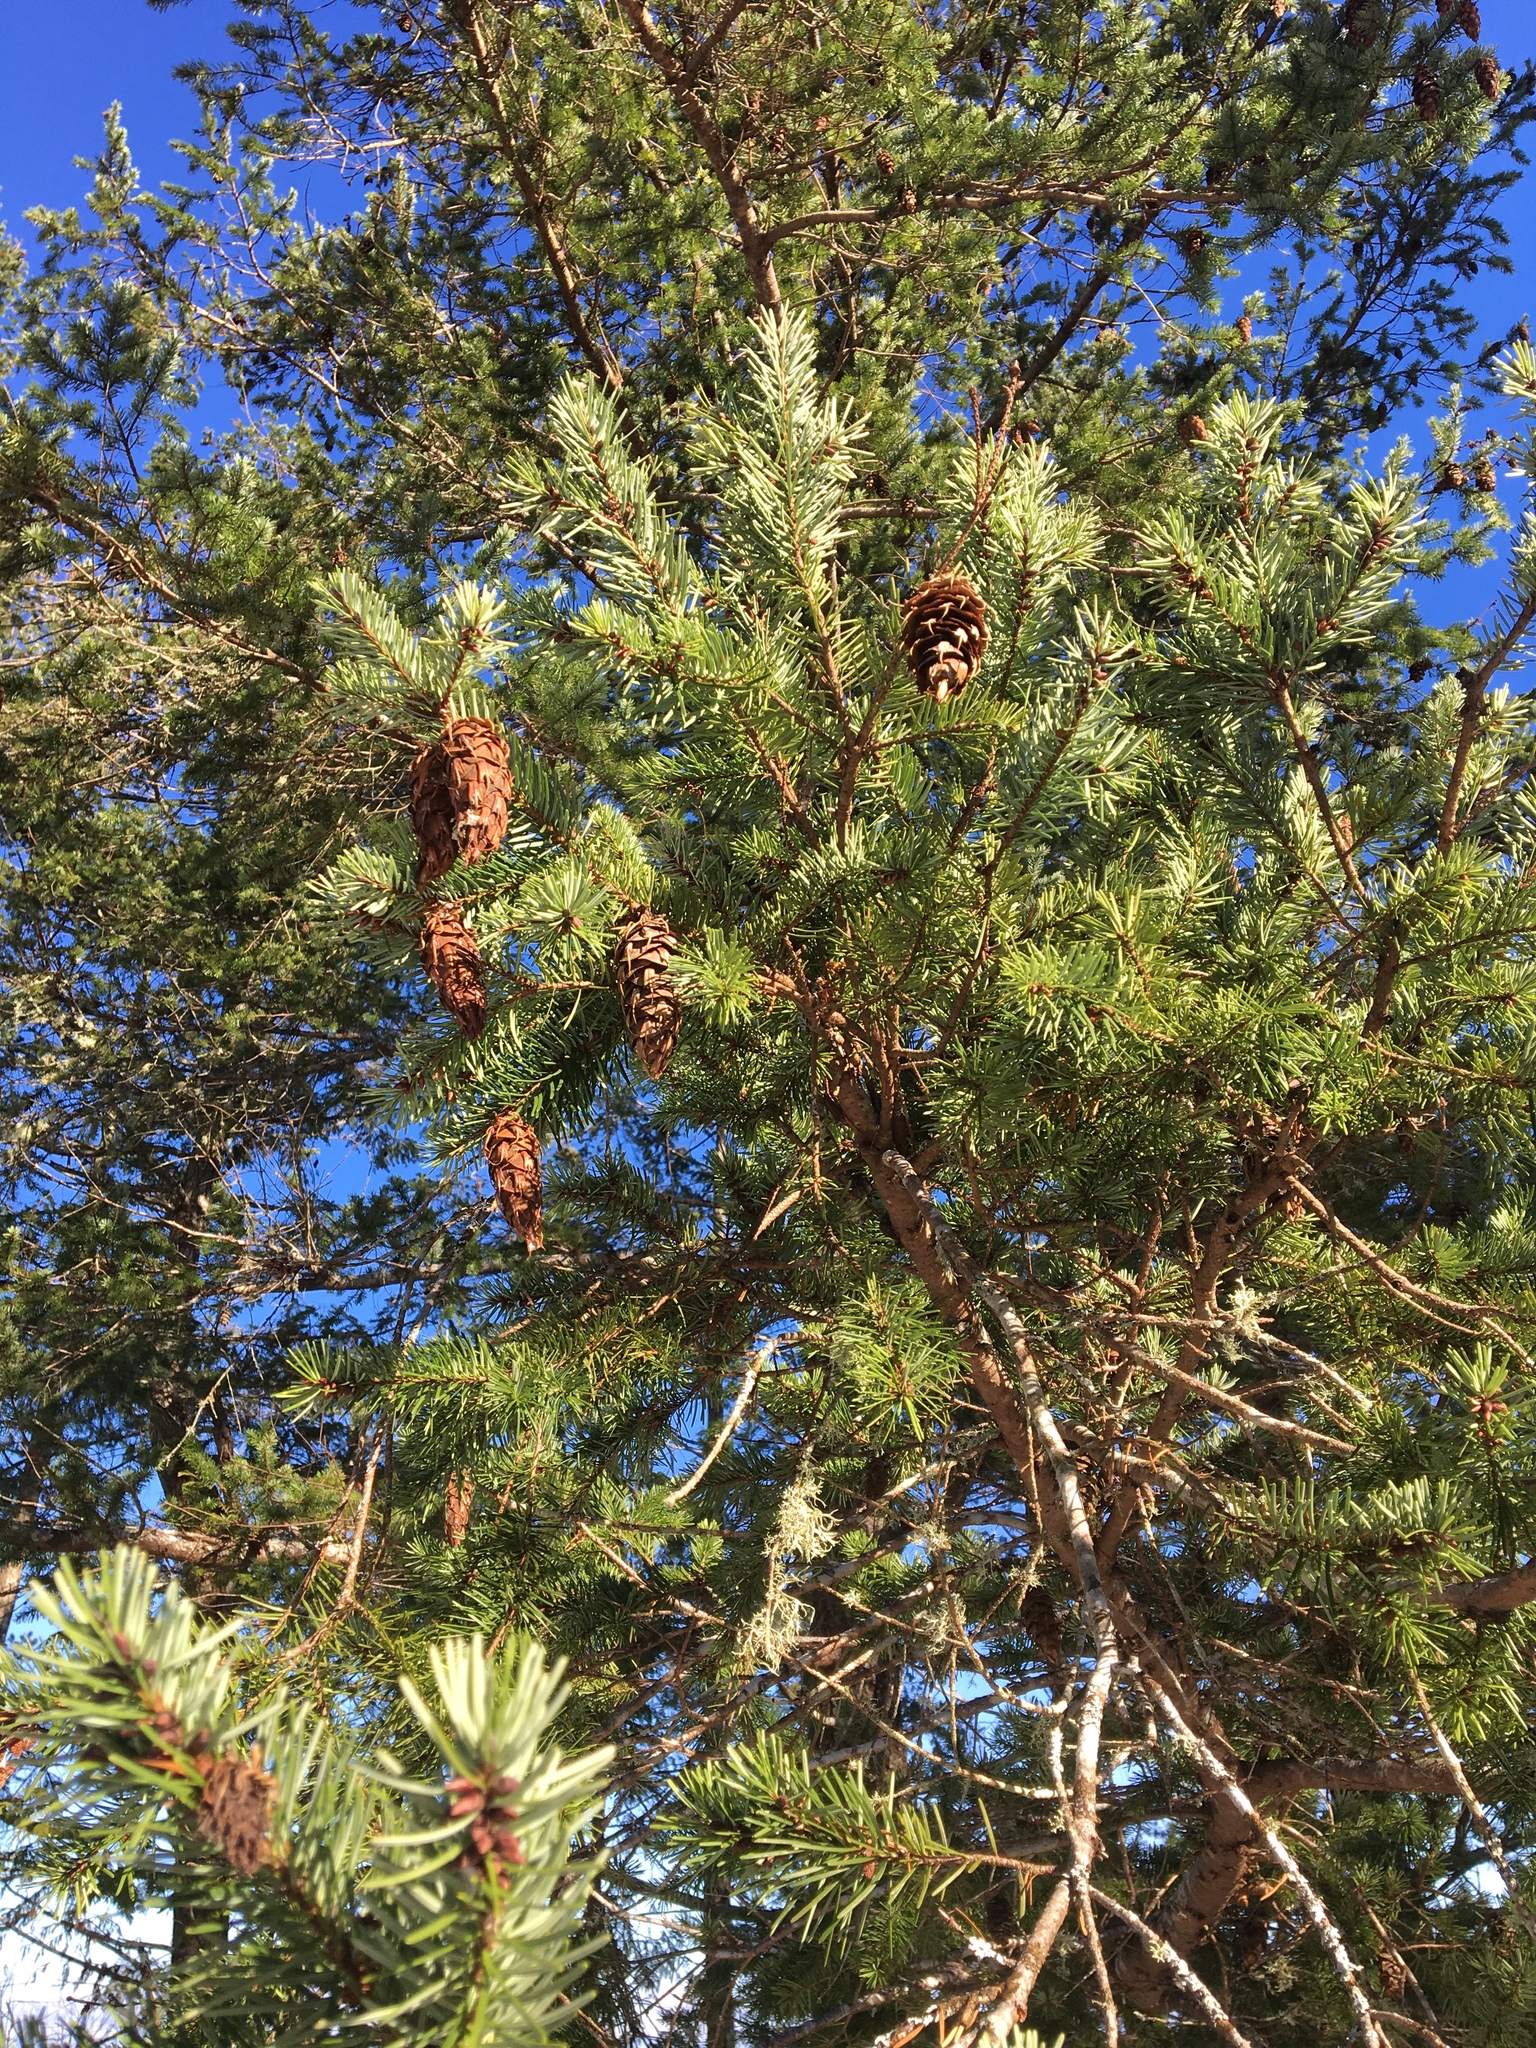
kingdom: Plantae
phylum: Tracheophyta
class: Pinopsida
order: Pinales
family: Pinaceae
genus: Pseudotsuga
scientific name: Pseudotsuga menziesii
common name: Douglas fir
